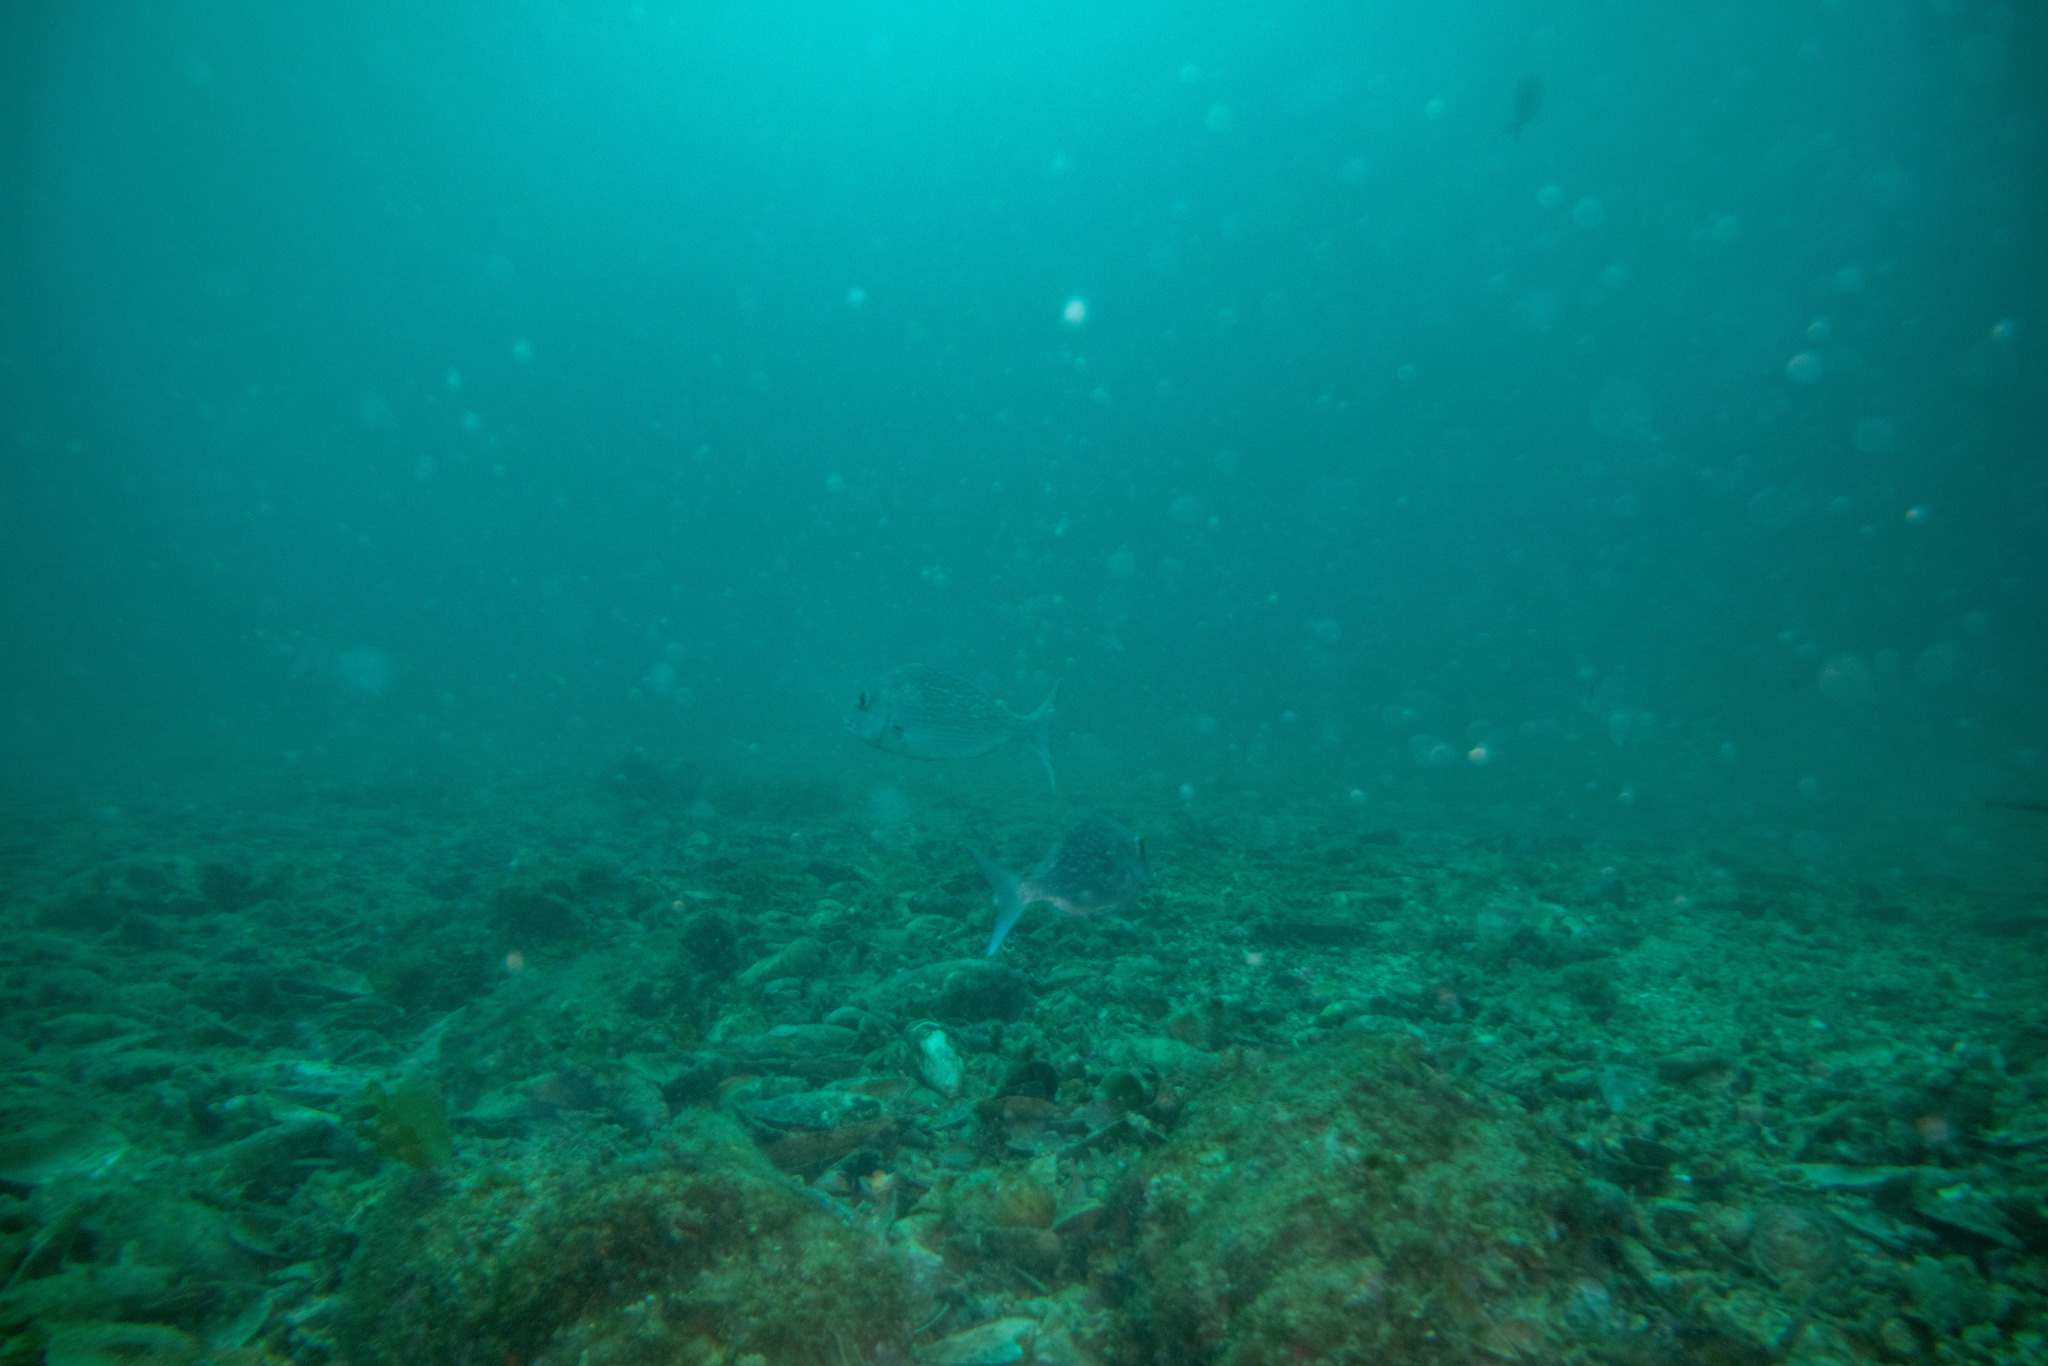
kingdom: Animalia
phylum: Chordata
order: Perciformes
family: Sparidae
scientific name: Sparidae
